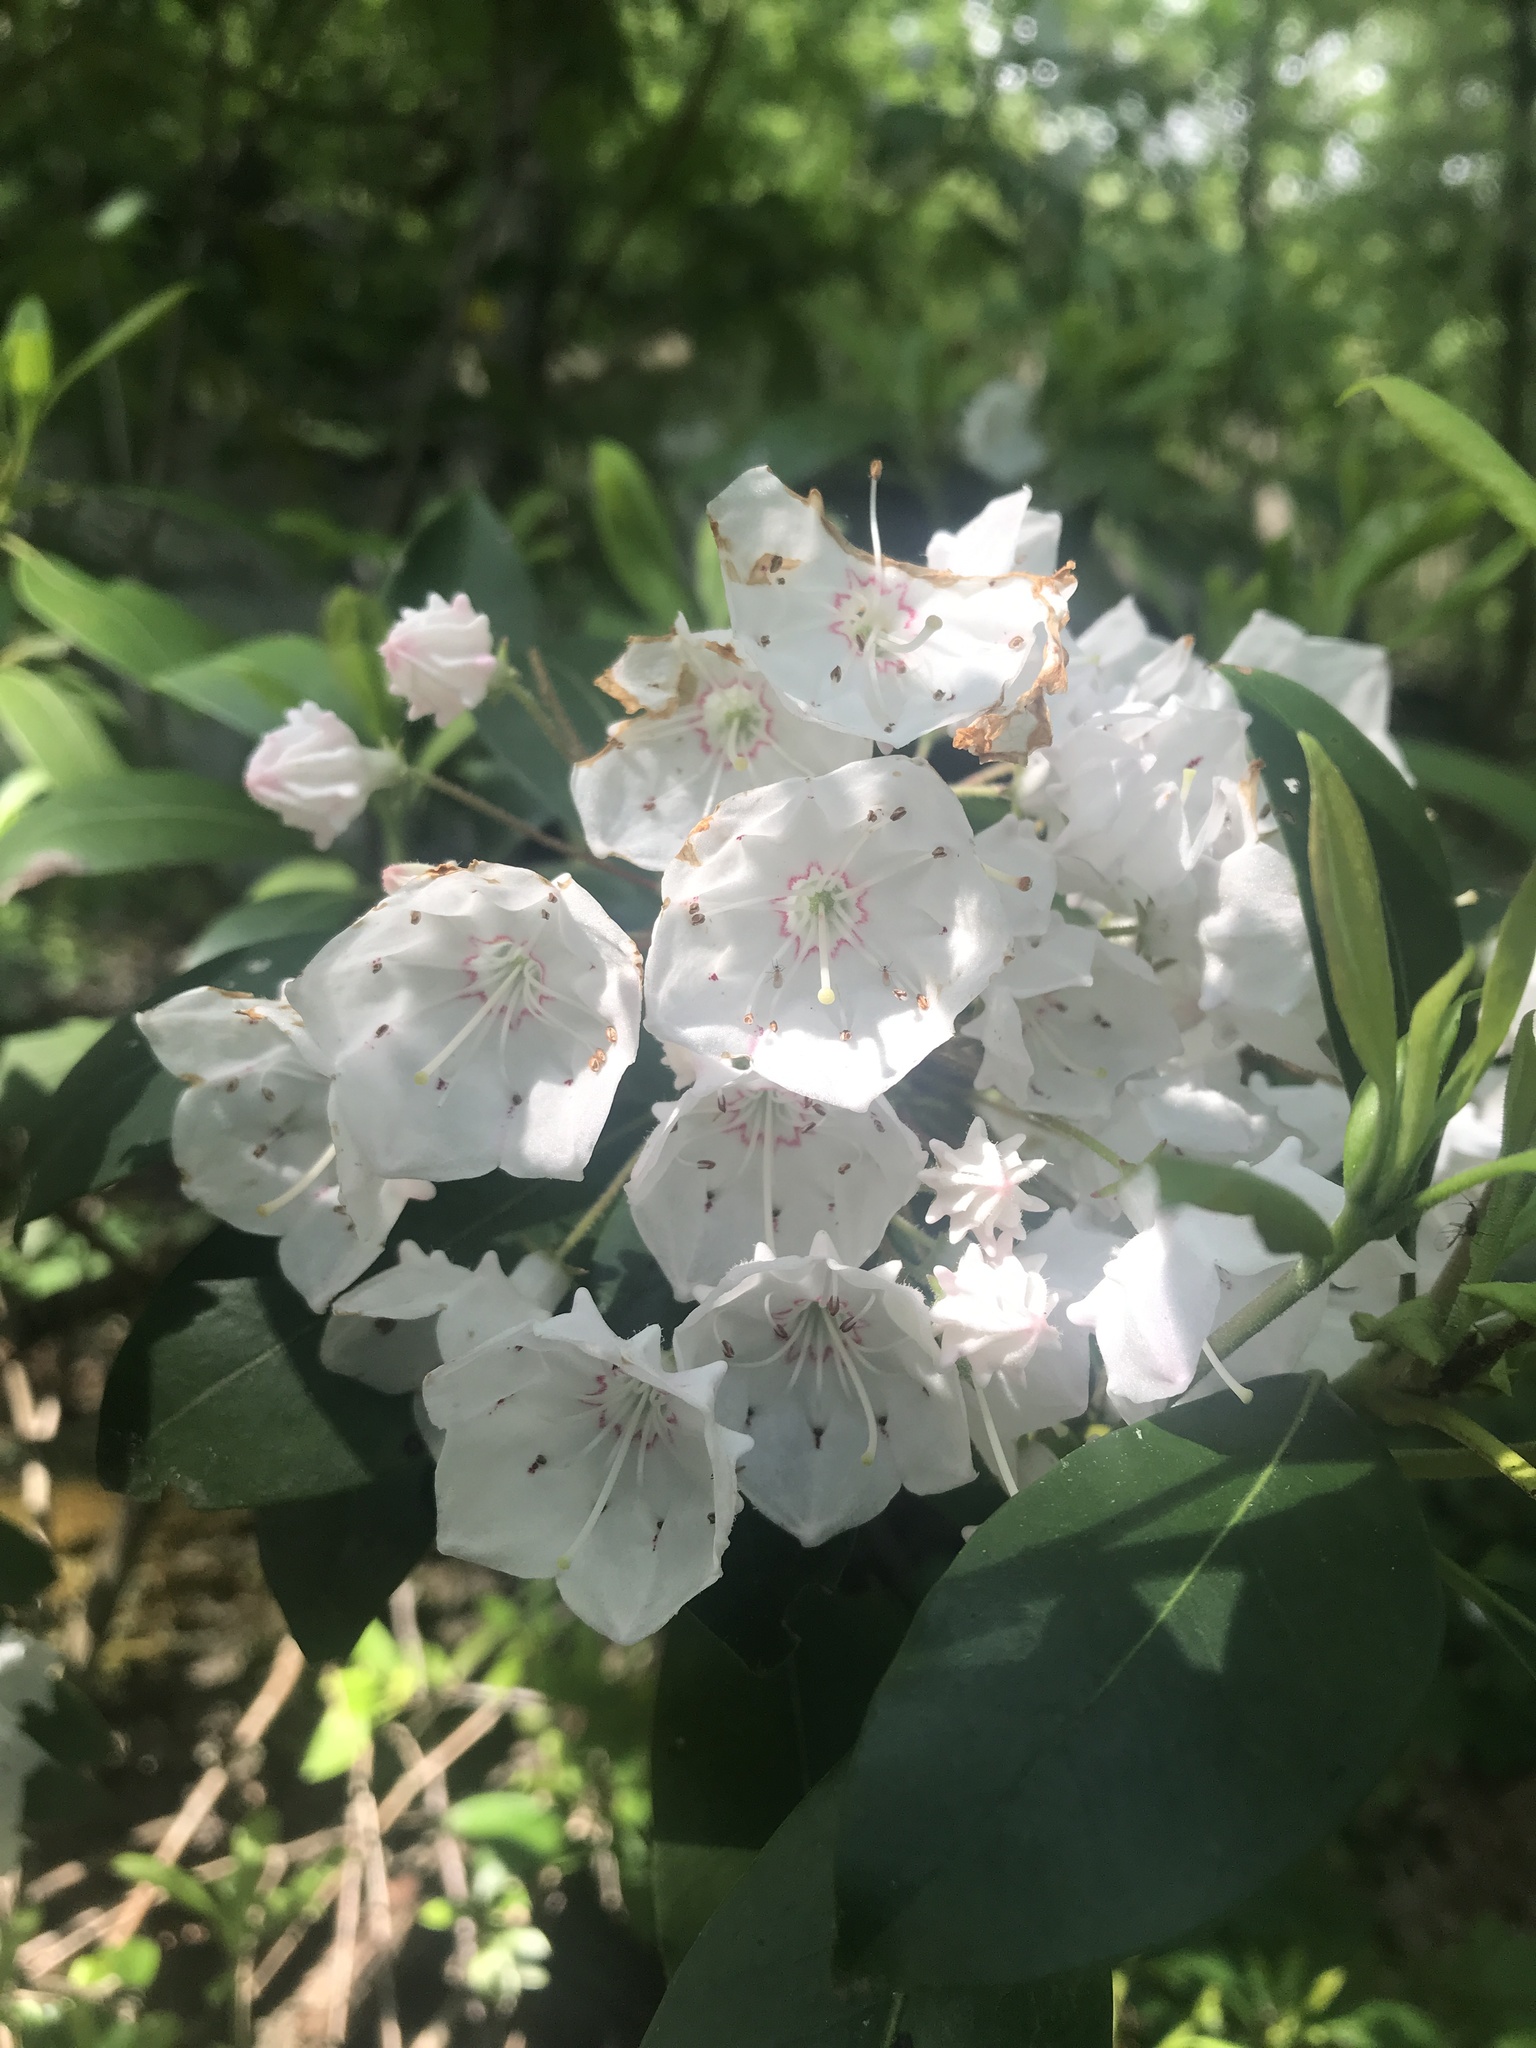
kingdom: Plantae
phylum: Tracheophyta
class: Magnoliopsida
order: Ericales
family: Ericaceae
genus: Kalmia
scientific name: Kalmia latifolia
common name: Mountain-laurel
